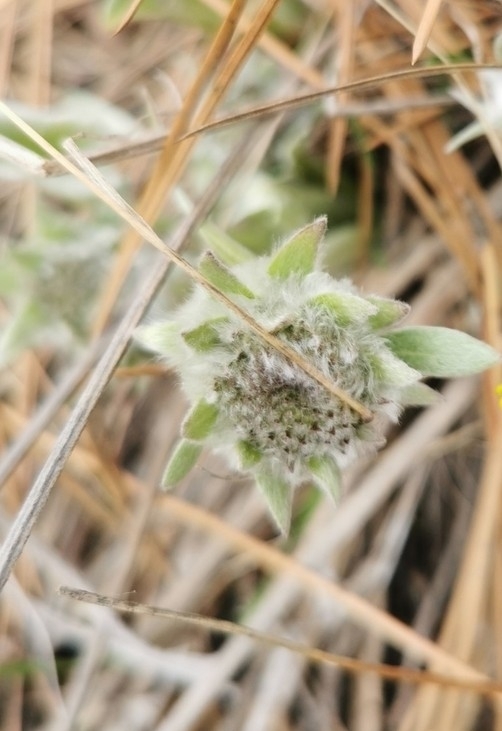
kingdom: Plantae
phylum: Tracheophyta
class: Magnoliopsida
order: Asterales
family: Asteraceae
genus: Wyethia
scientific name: Wyethia sagittata
